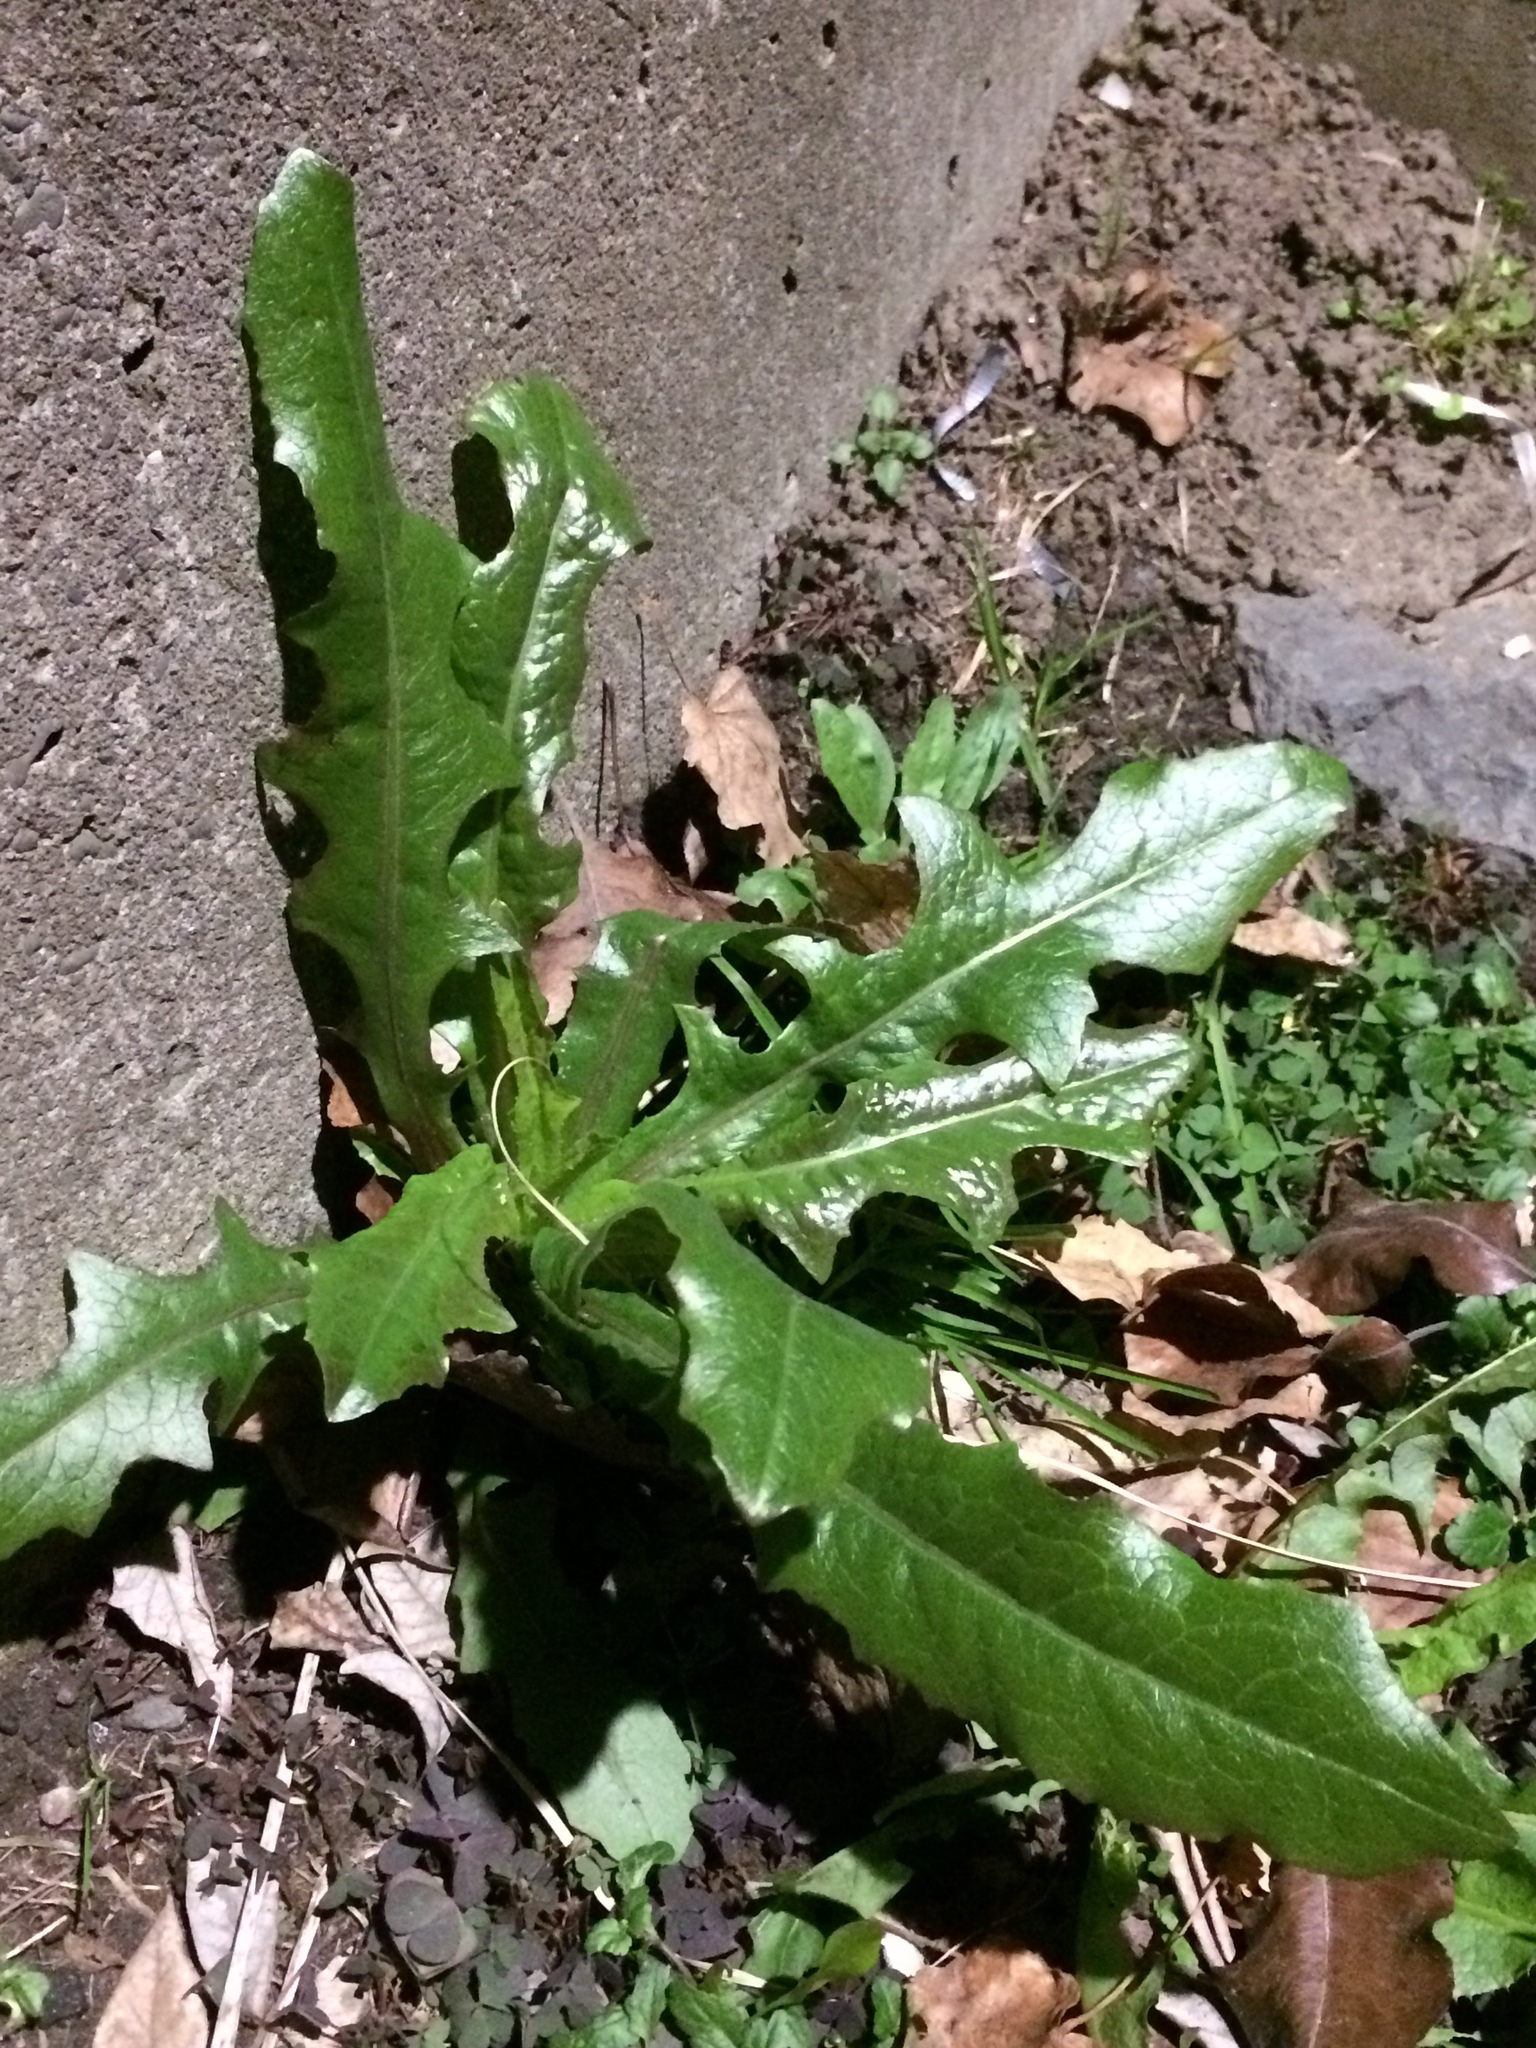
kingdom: Plantae
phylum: Tracheophyta
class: Magnoliopsida
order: Asterales
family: Asteraceae
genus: Taraxacum
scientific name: Taraxacum officinale
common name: Common dandelion
